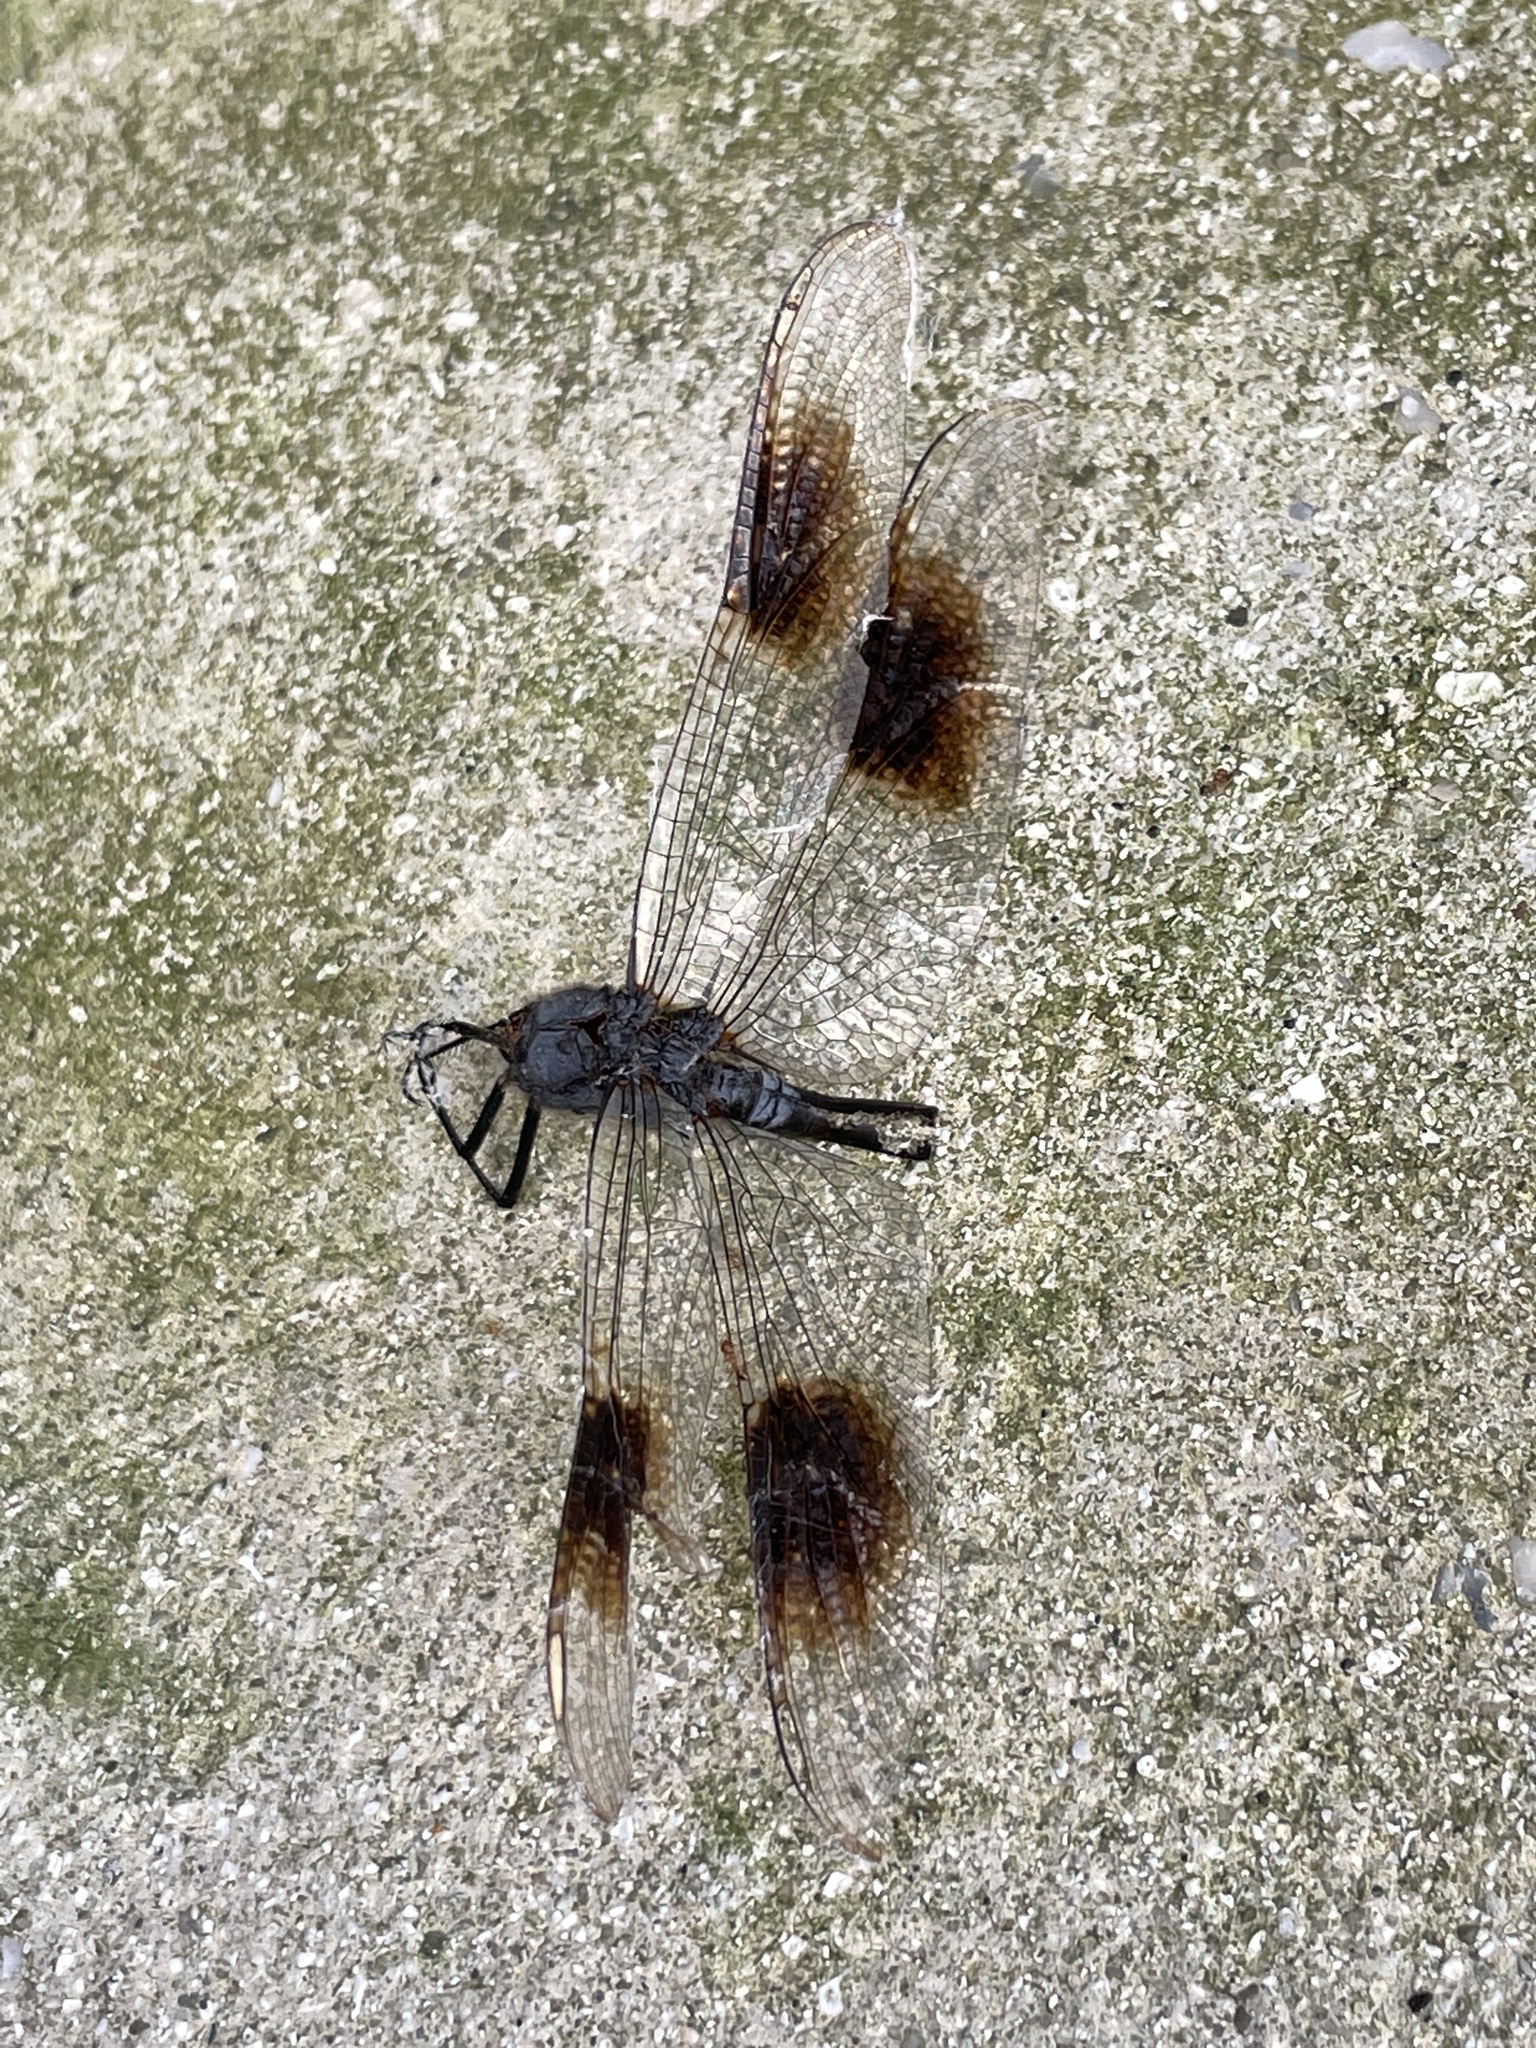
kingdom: Animalia
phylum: Arthropoda
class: Insecta
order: Odonata
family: Libellulidae
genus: Brachymesia
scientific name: Brachymesia gravida
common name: Four-spotted pennant
